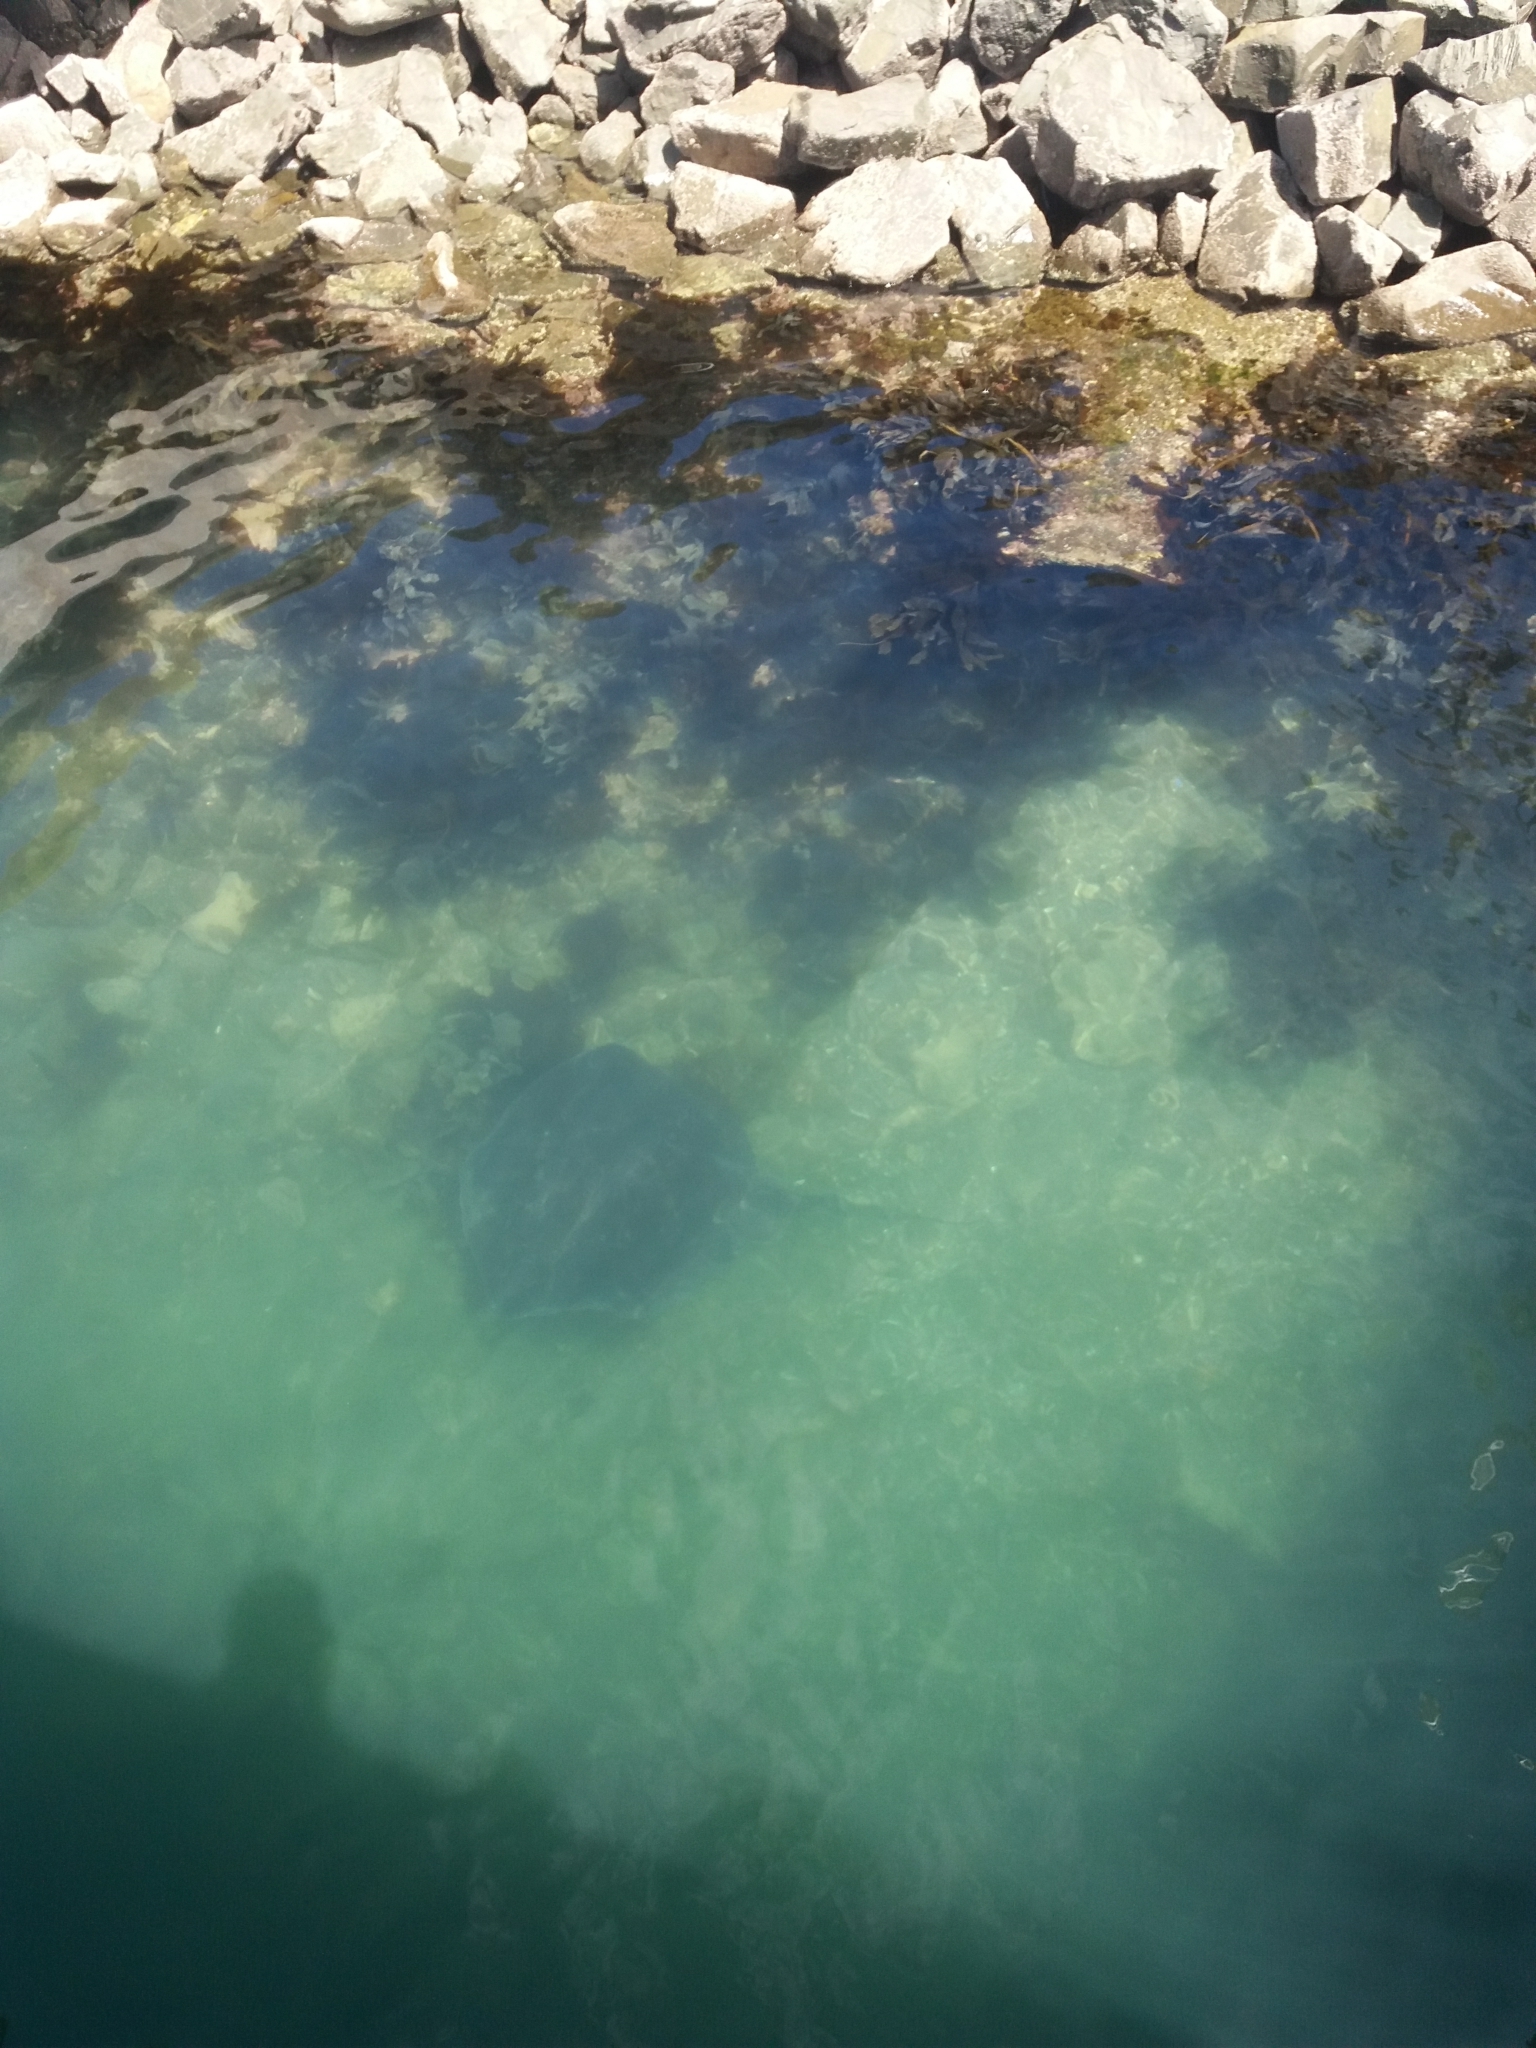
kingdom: Animalia
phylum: Chordata
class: Elasmobranchii
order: Myliobatiformes
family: Dasyatidae
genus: Bathytoshia
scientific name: Bathytoshia brevicaudata
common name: Short-tail stingray
